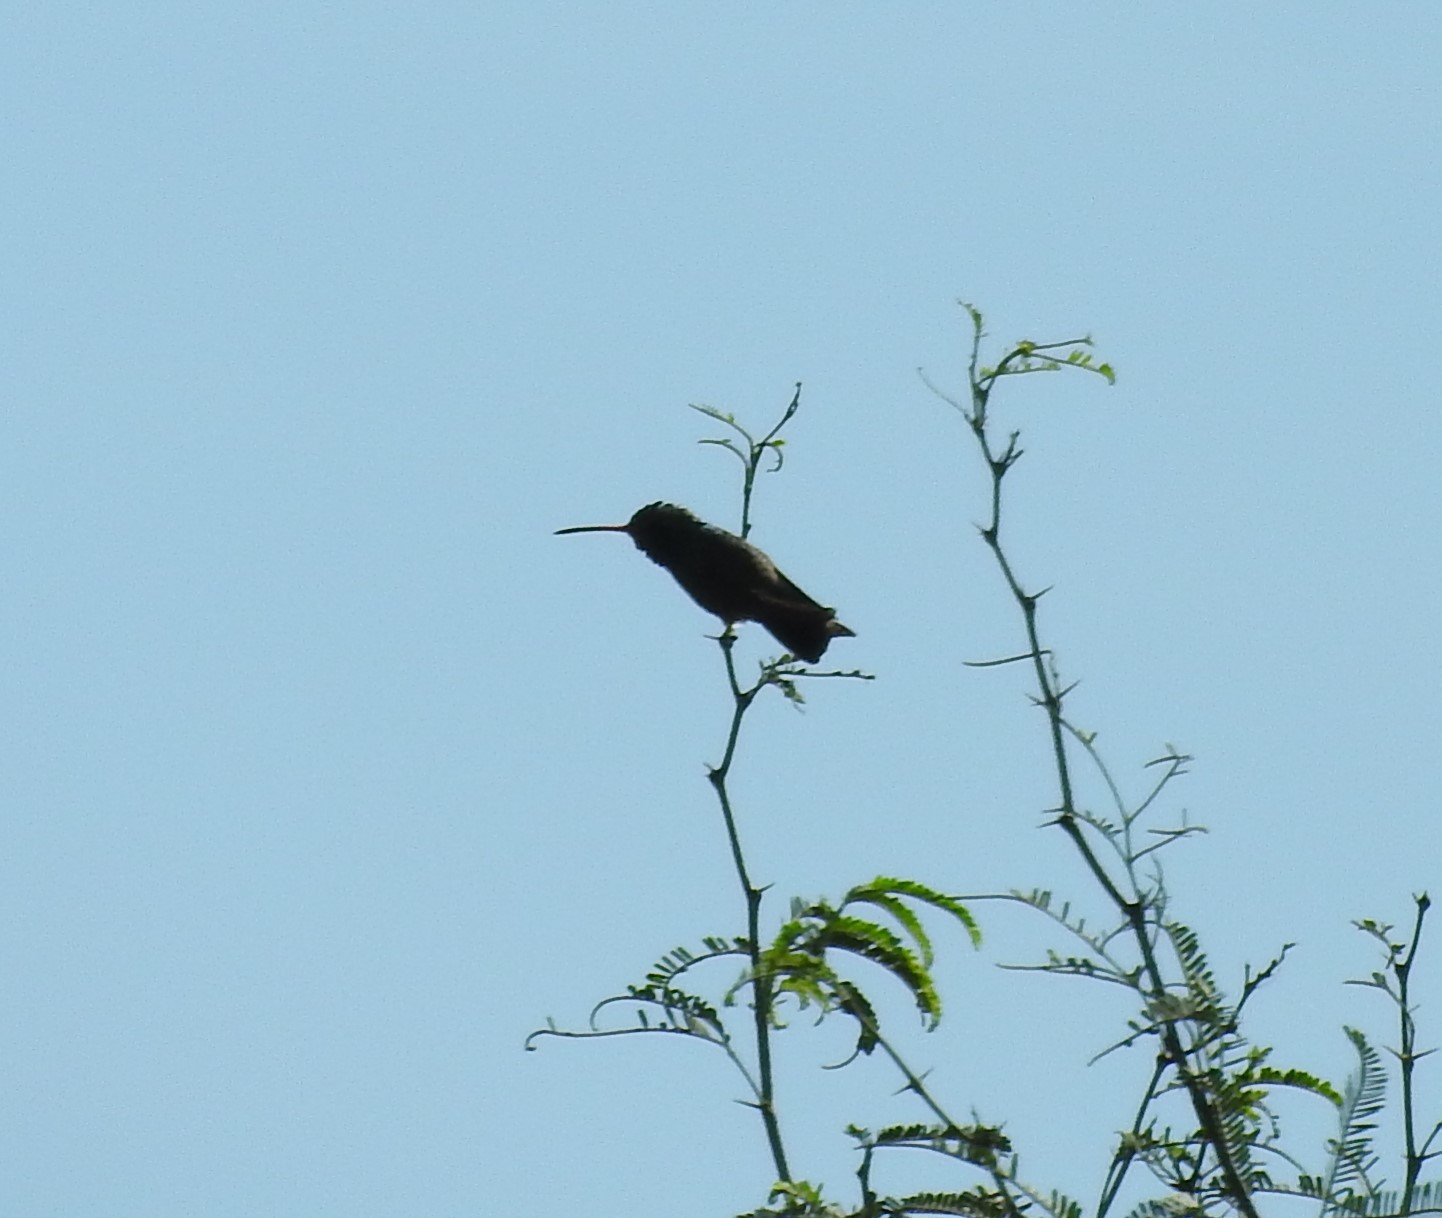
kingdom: Animalia
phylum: Chordata
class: Aves
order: Apodiformes
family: Trochilidae
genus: Cynanthus
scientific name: Cynanthus latirostris
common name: Broad-billed hummingbird
